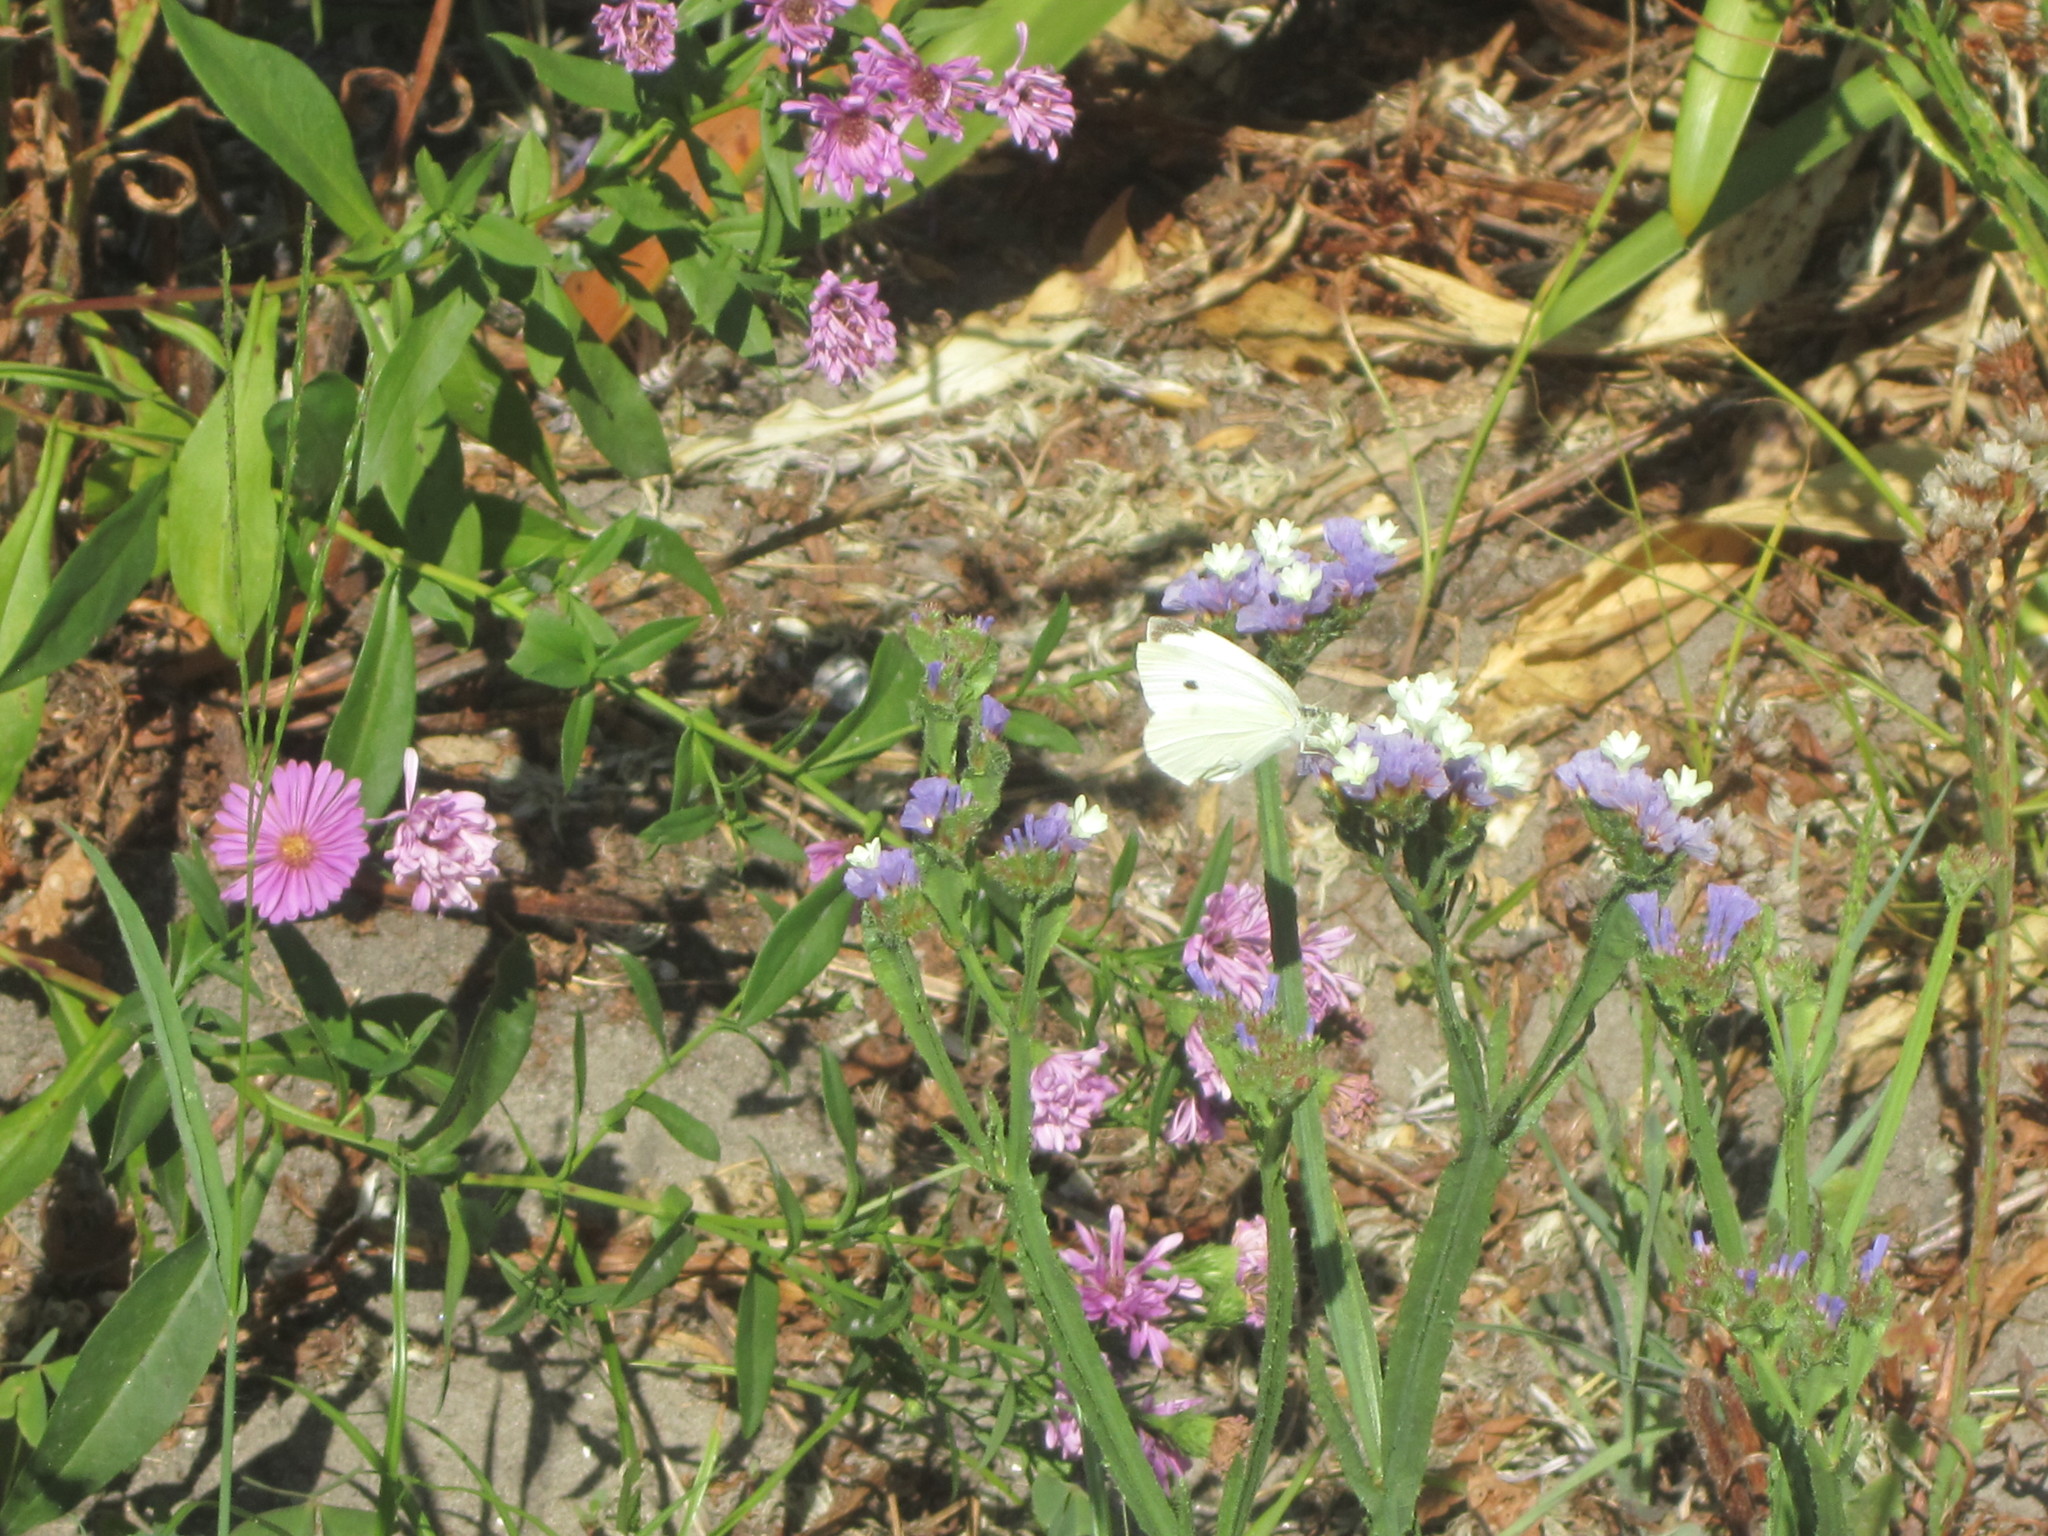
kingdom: Animalia
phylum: Arthropoda
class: Insecta
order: Lepidoptera
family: Pieridae
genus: Pieris
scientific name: Pieris rapae
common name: Small white
